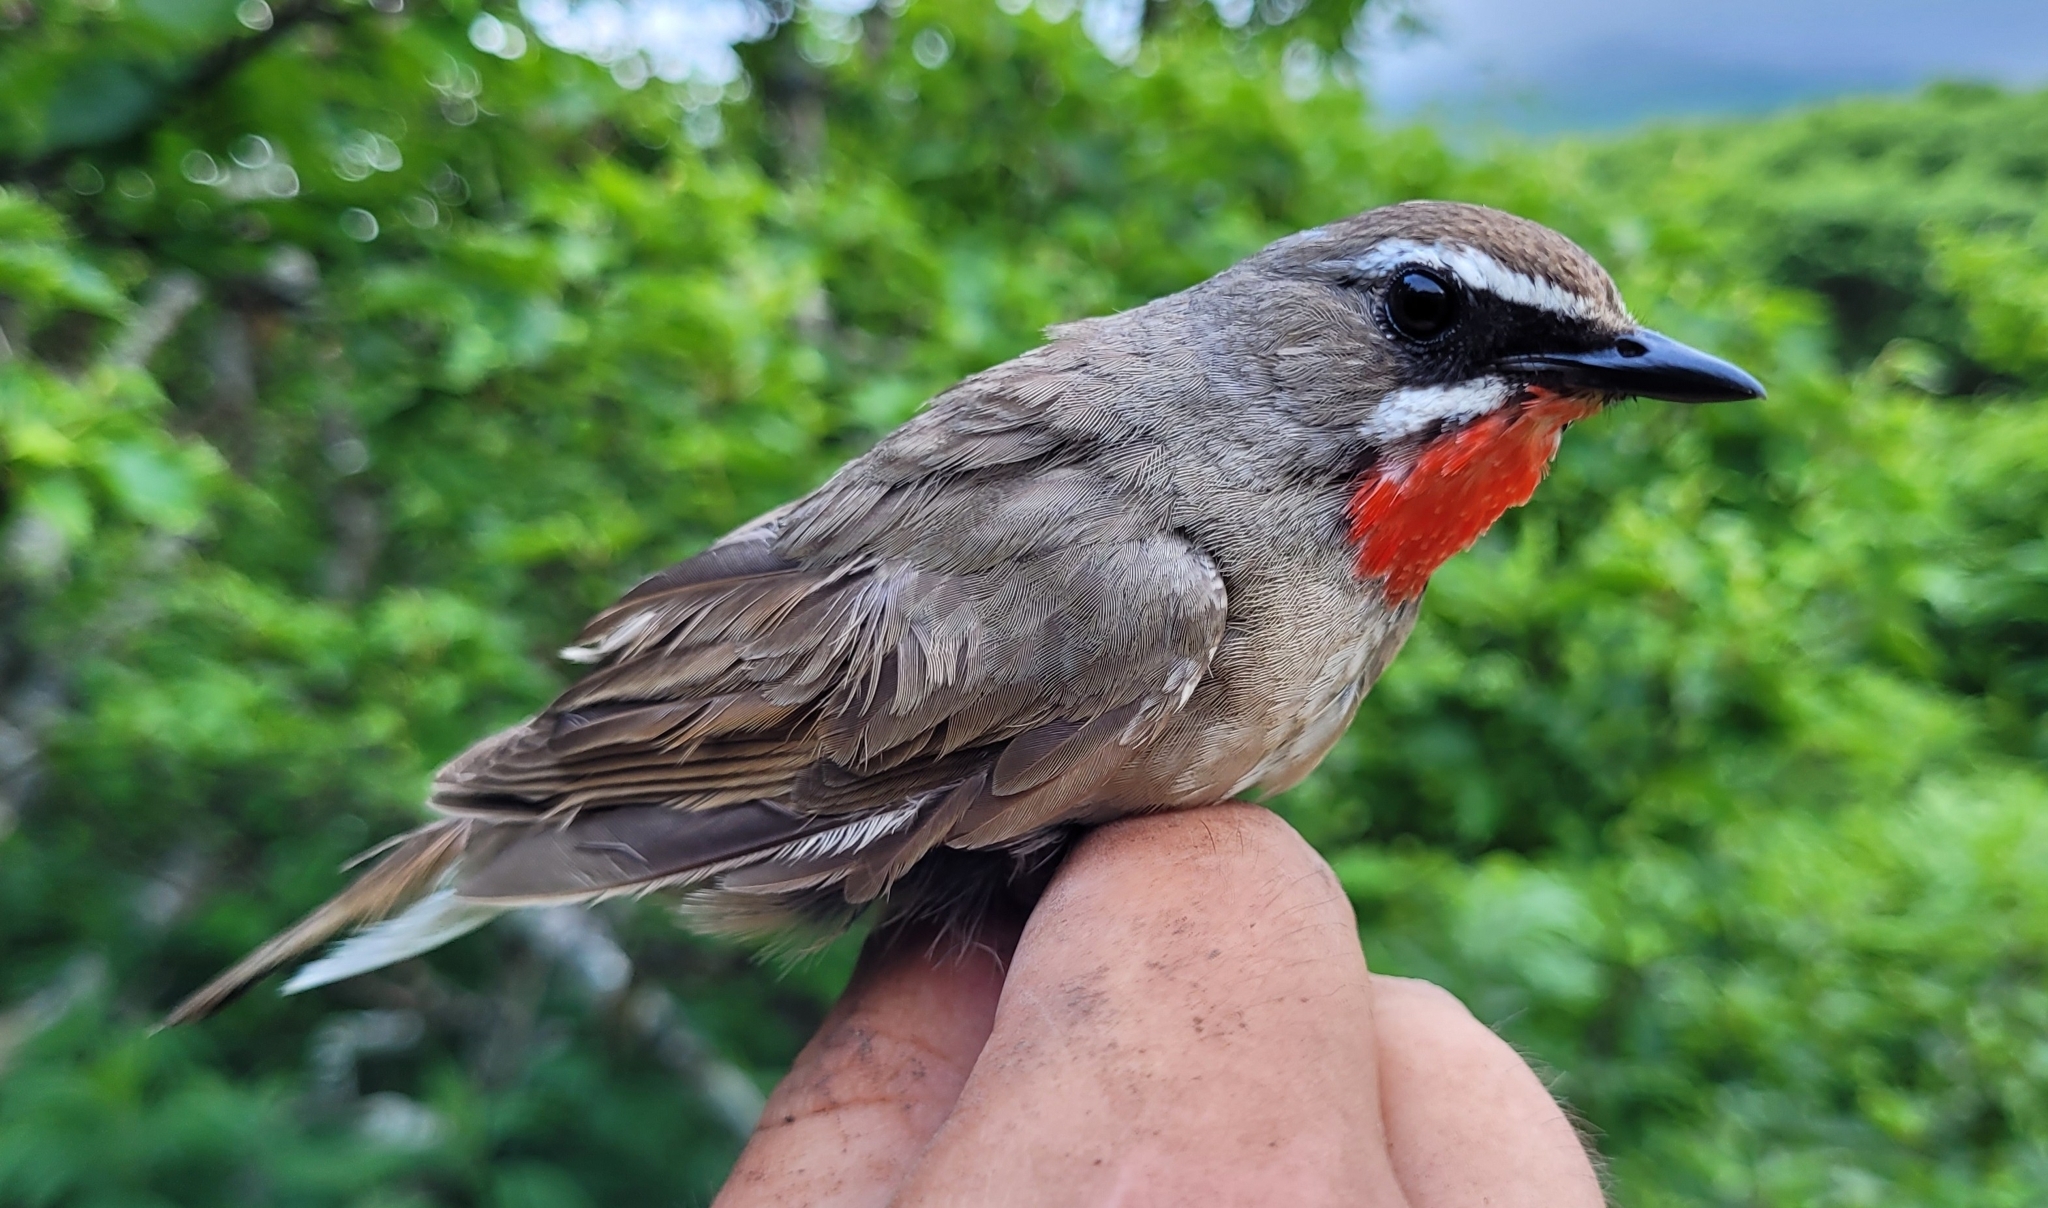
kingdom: Animalia
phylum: Chordata
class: Aves
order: Passeriformes
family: Muscicapidae
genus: Luscinia
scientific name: Luscinia calliope
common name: Siberian rubythroat
